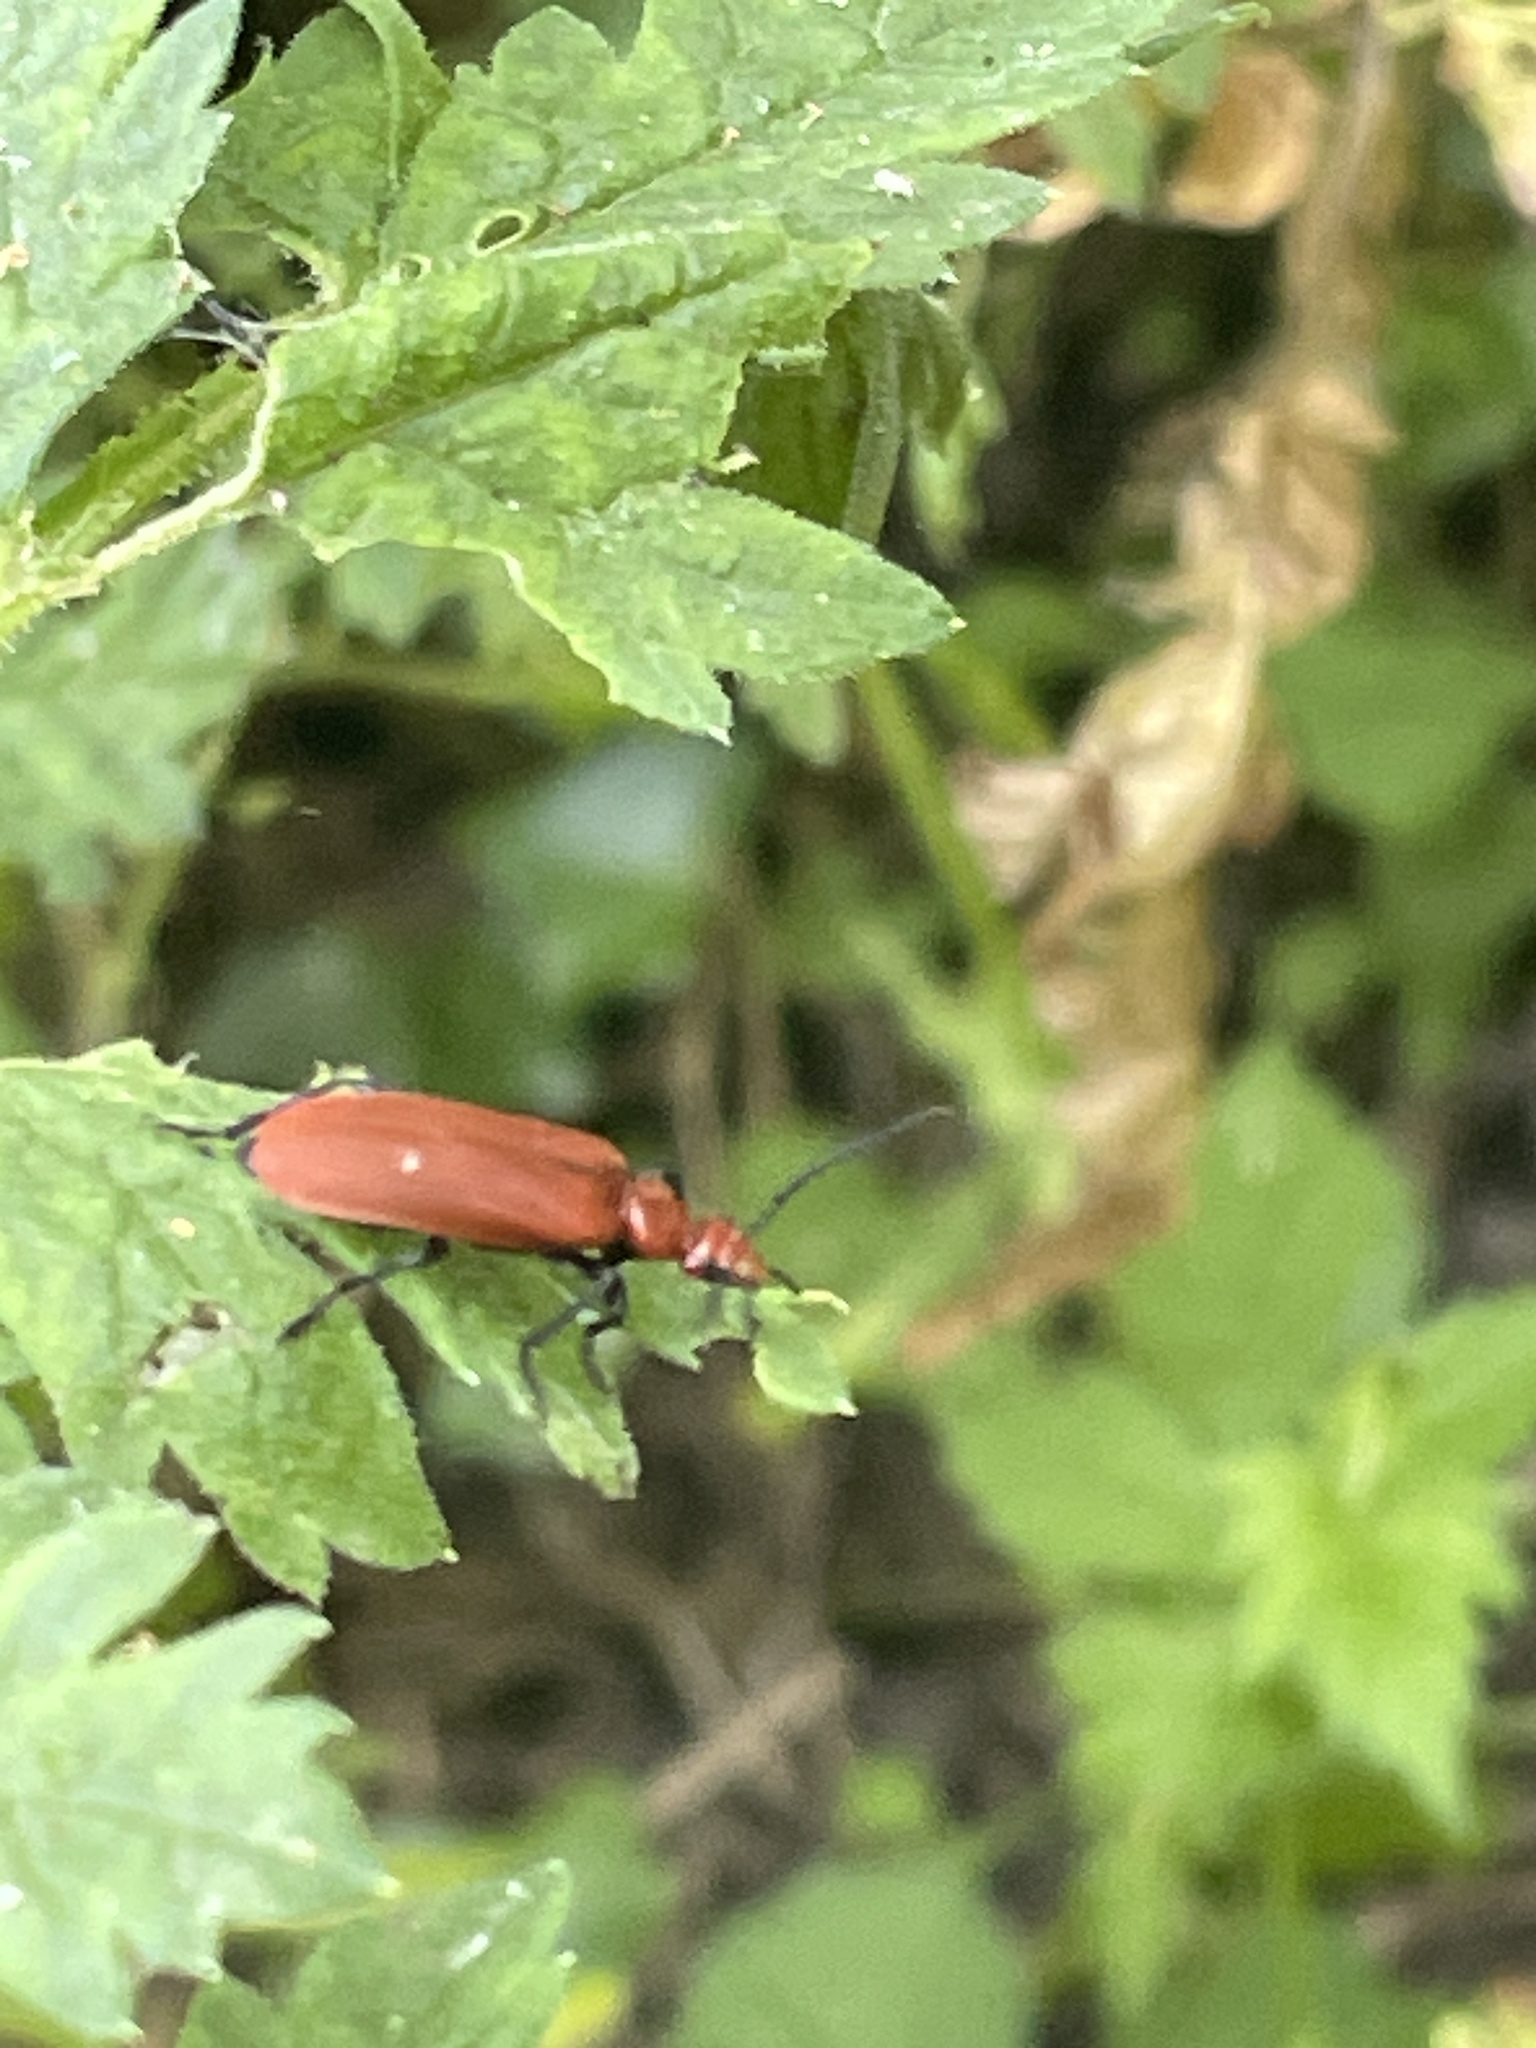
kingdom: Animalia
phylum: Arthropoda
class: Insecta
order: Coleoptera
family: Pyrochroidae
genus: Pyrochroa
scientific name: Pyrochroa serraticornis
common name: Red-headed cardinal beetle
